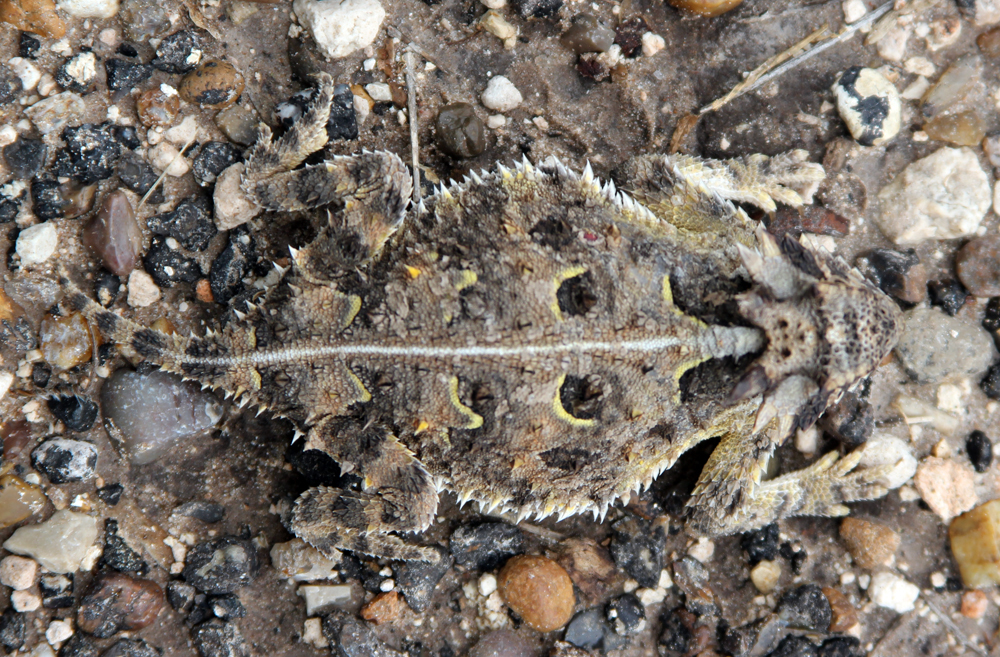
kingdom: Animalia
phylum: Chordata
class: Squamata
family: Phrynosomatidae
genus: Phrynosoma
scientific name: Phrynosoma cornutum
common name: Texas horned lizard
